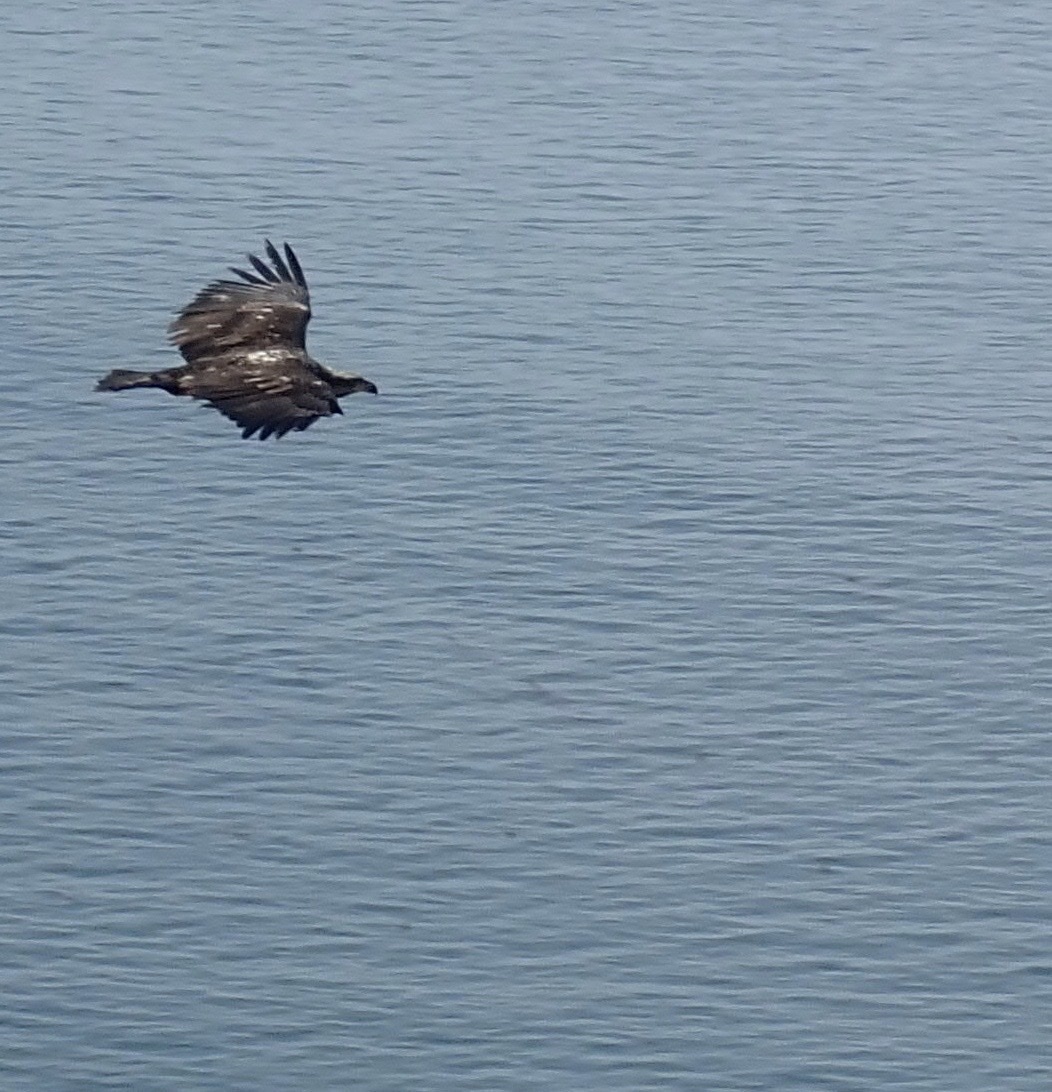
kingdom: Animalia
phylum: Chordata
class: Aves
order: Accipitriformes
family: Accipitridae
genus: Haliaeetus
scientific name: Haliaeetus leucocephalus
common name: Bald eagle
